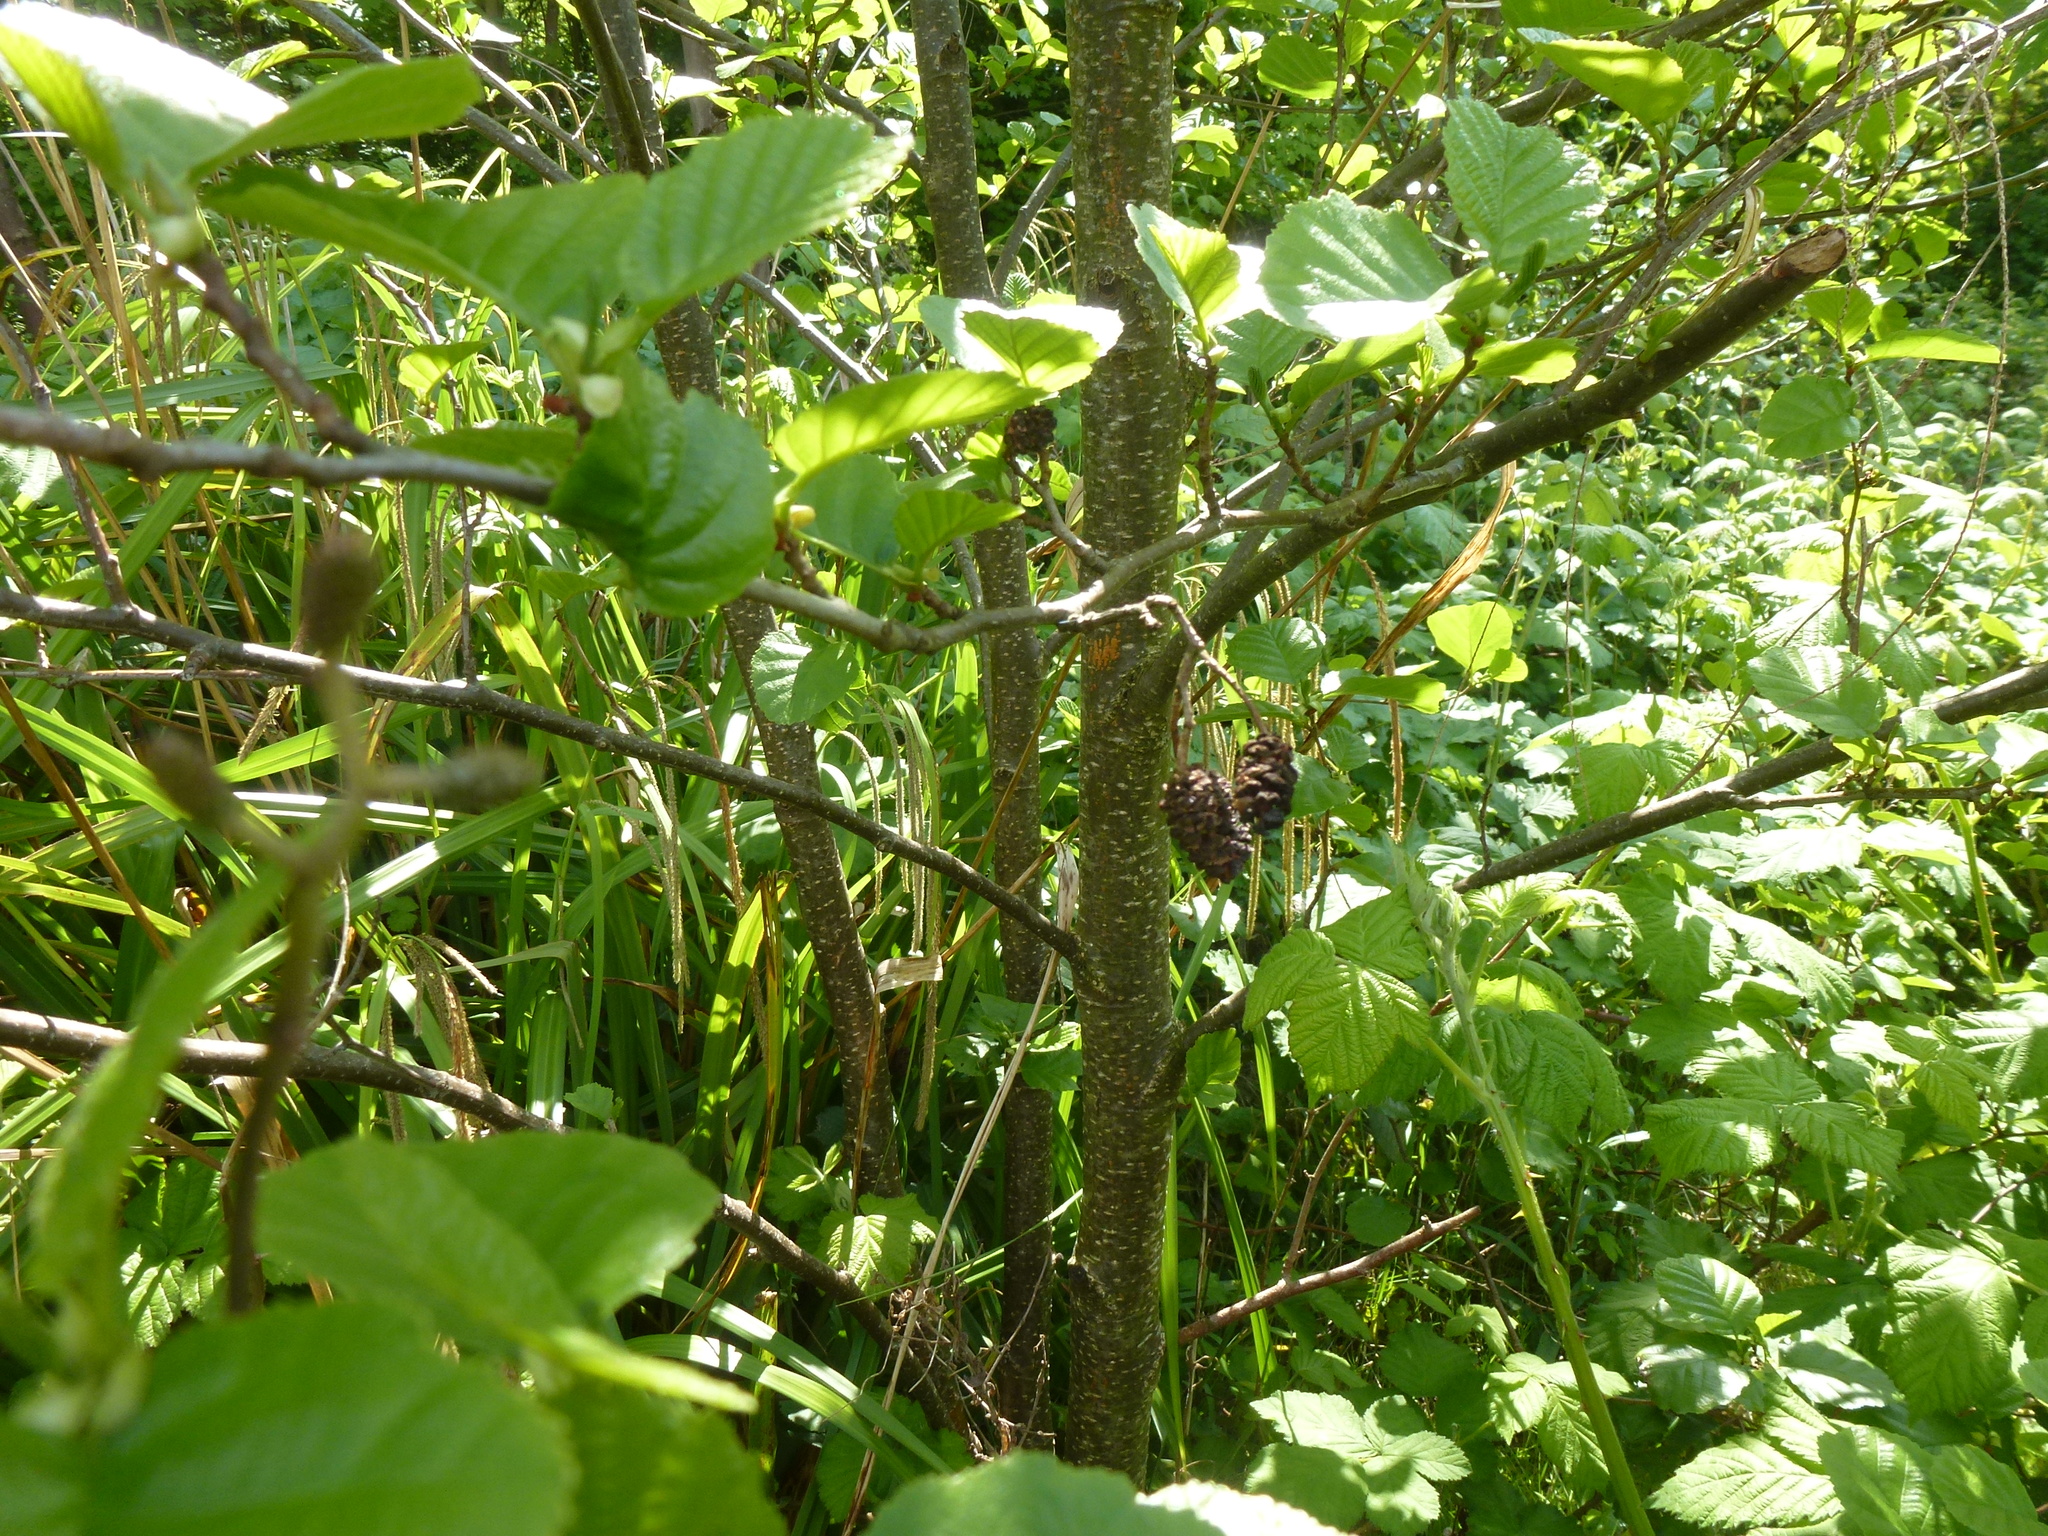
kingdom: Plantae
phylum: Tracheophyta
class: Magnoliopsida
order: Fagales
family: Betulaceae
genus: Alnus
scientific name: Alnus glutinosa
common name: Black alder
